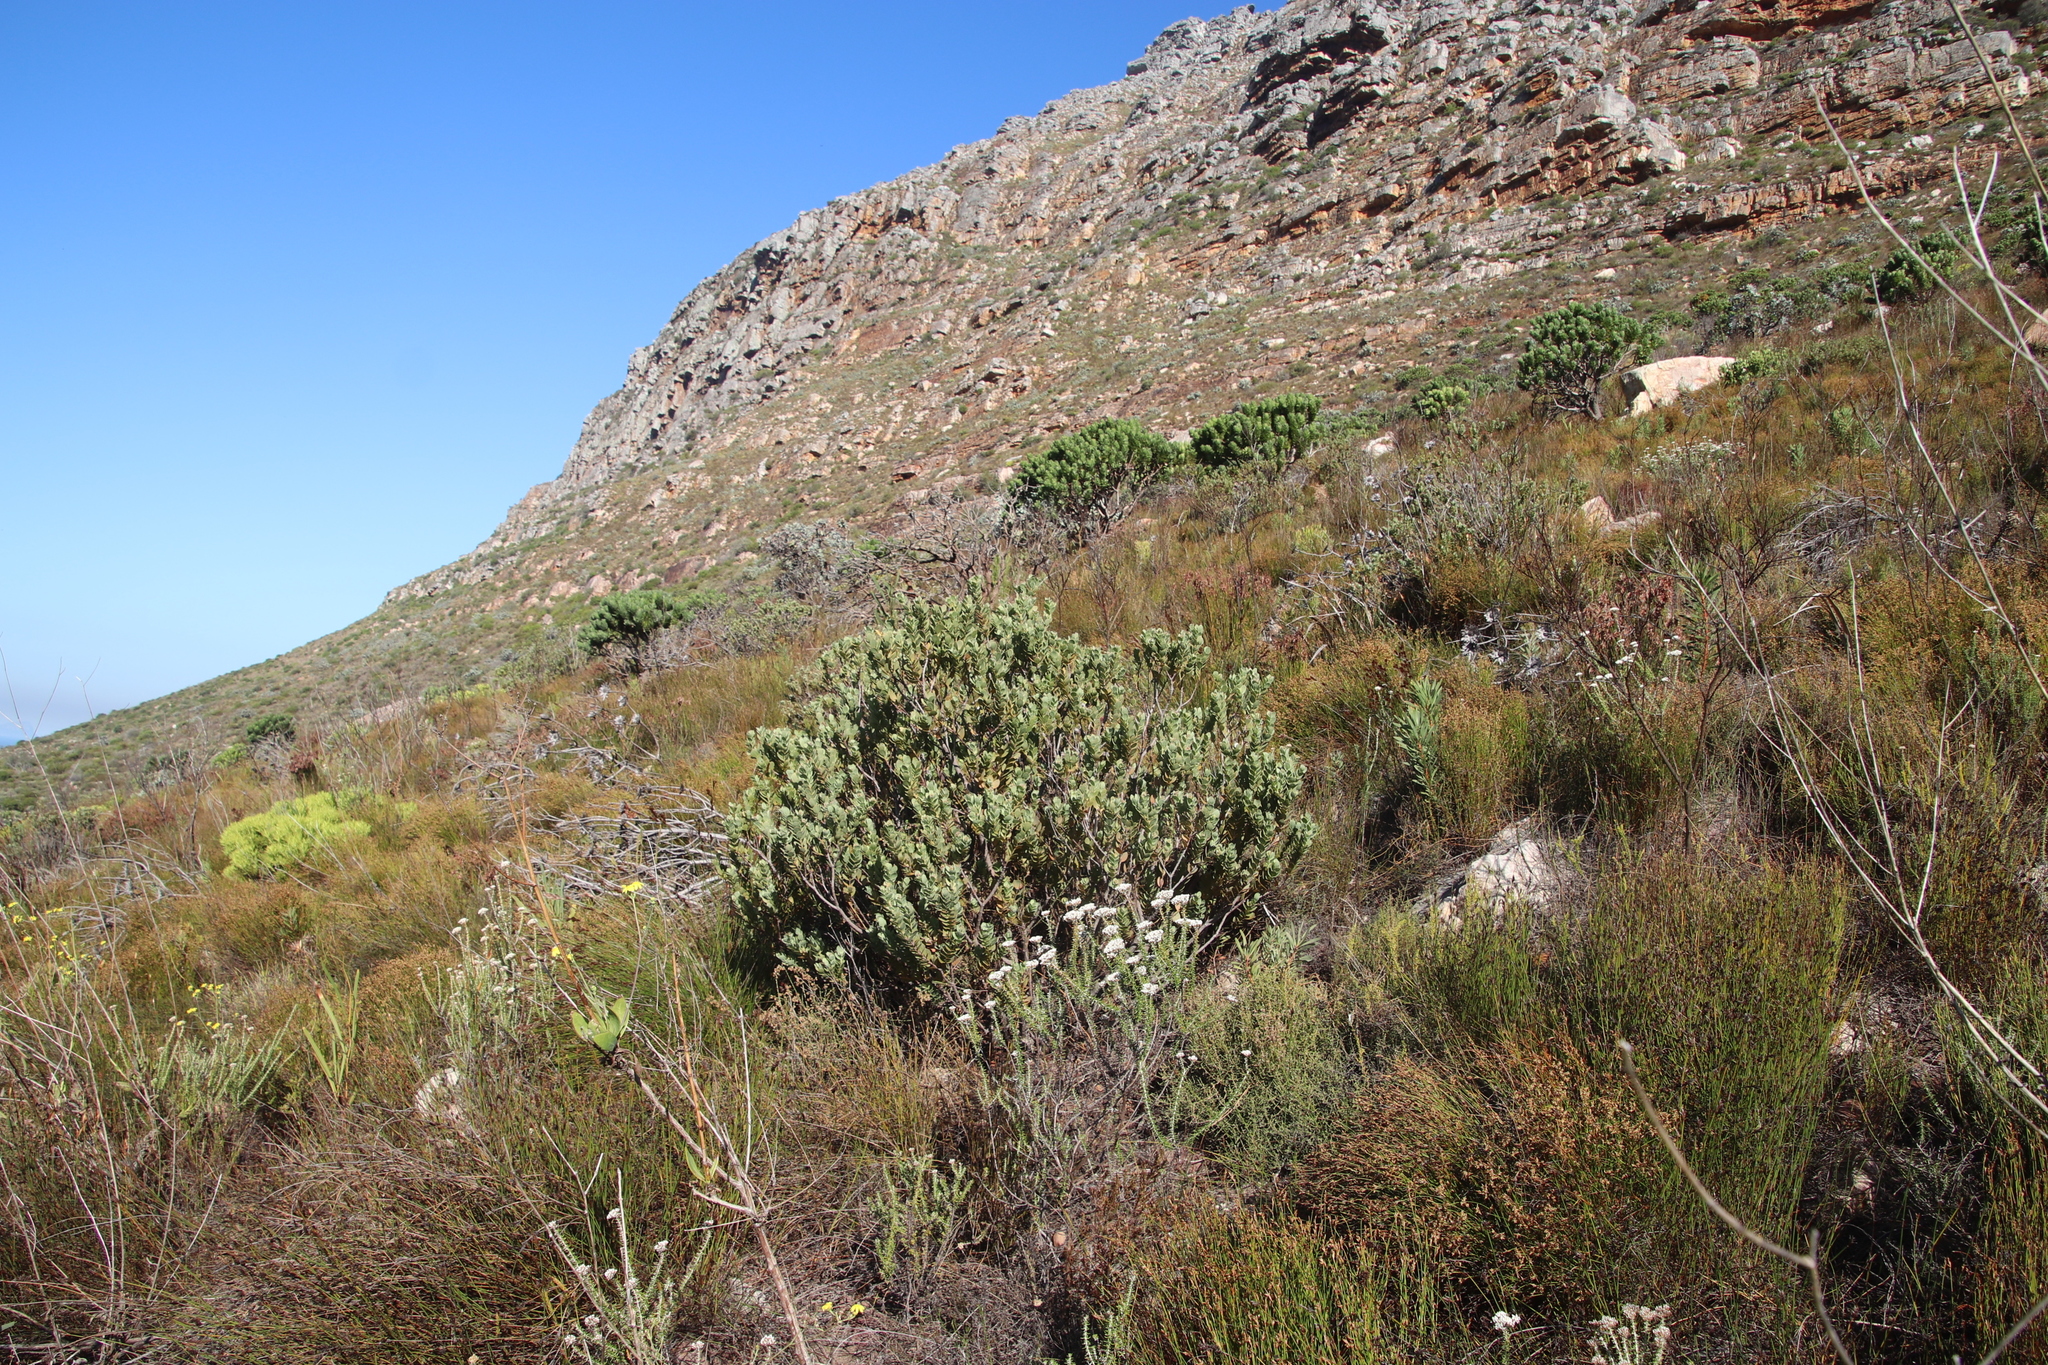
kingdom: Plantae
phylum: Tracheophyta
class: Magnoliopsida
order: Santalales
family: Santalaceae
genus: Osyris
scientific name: Osyris compressa
